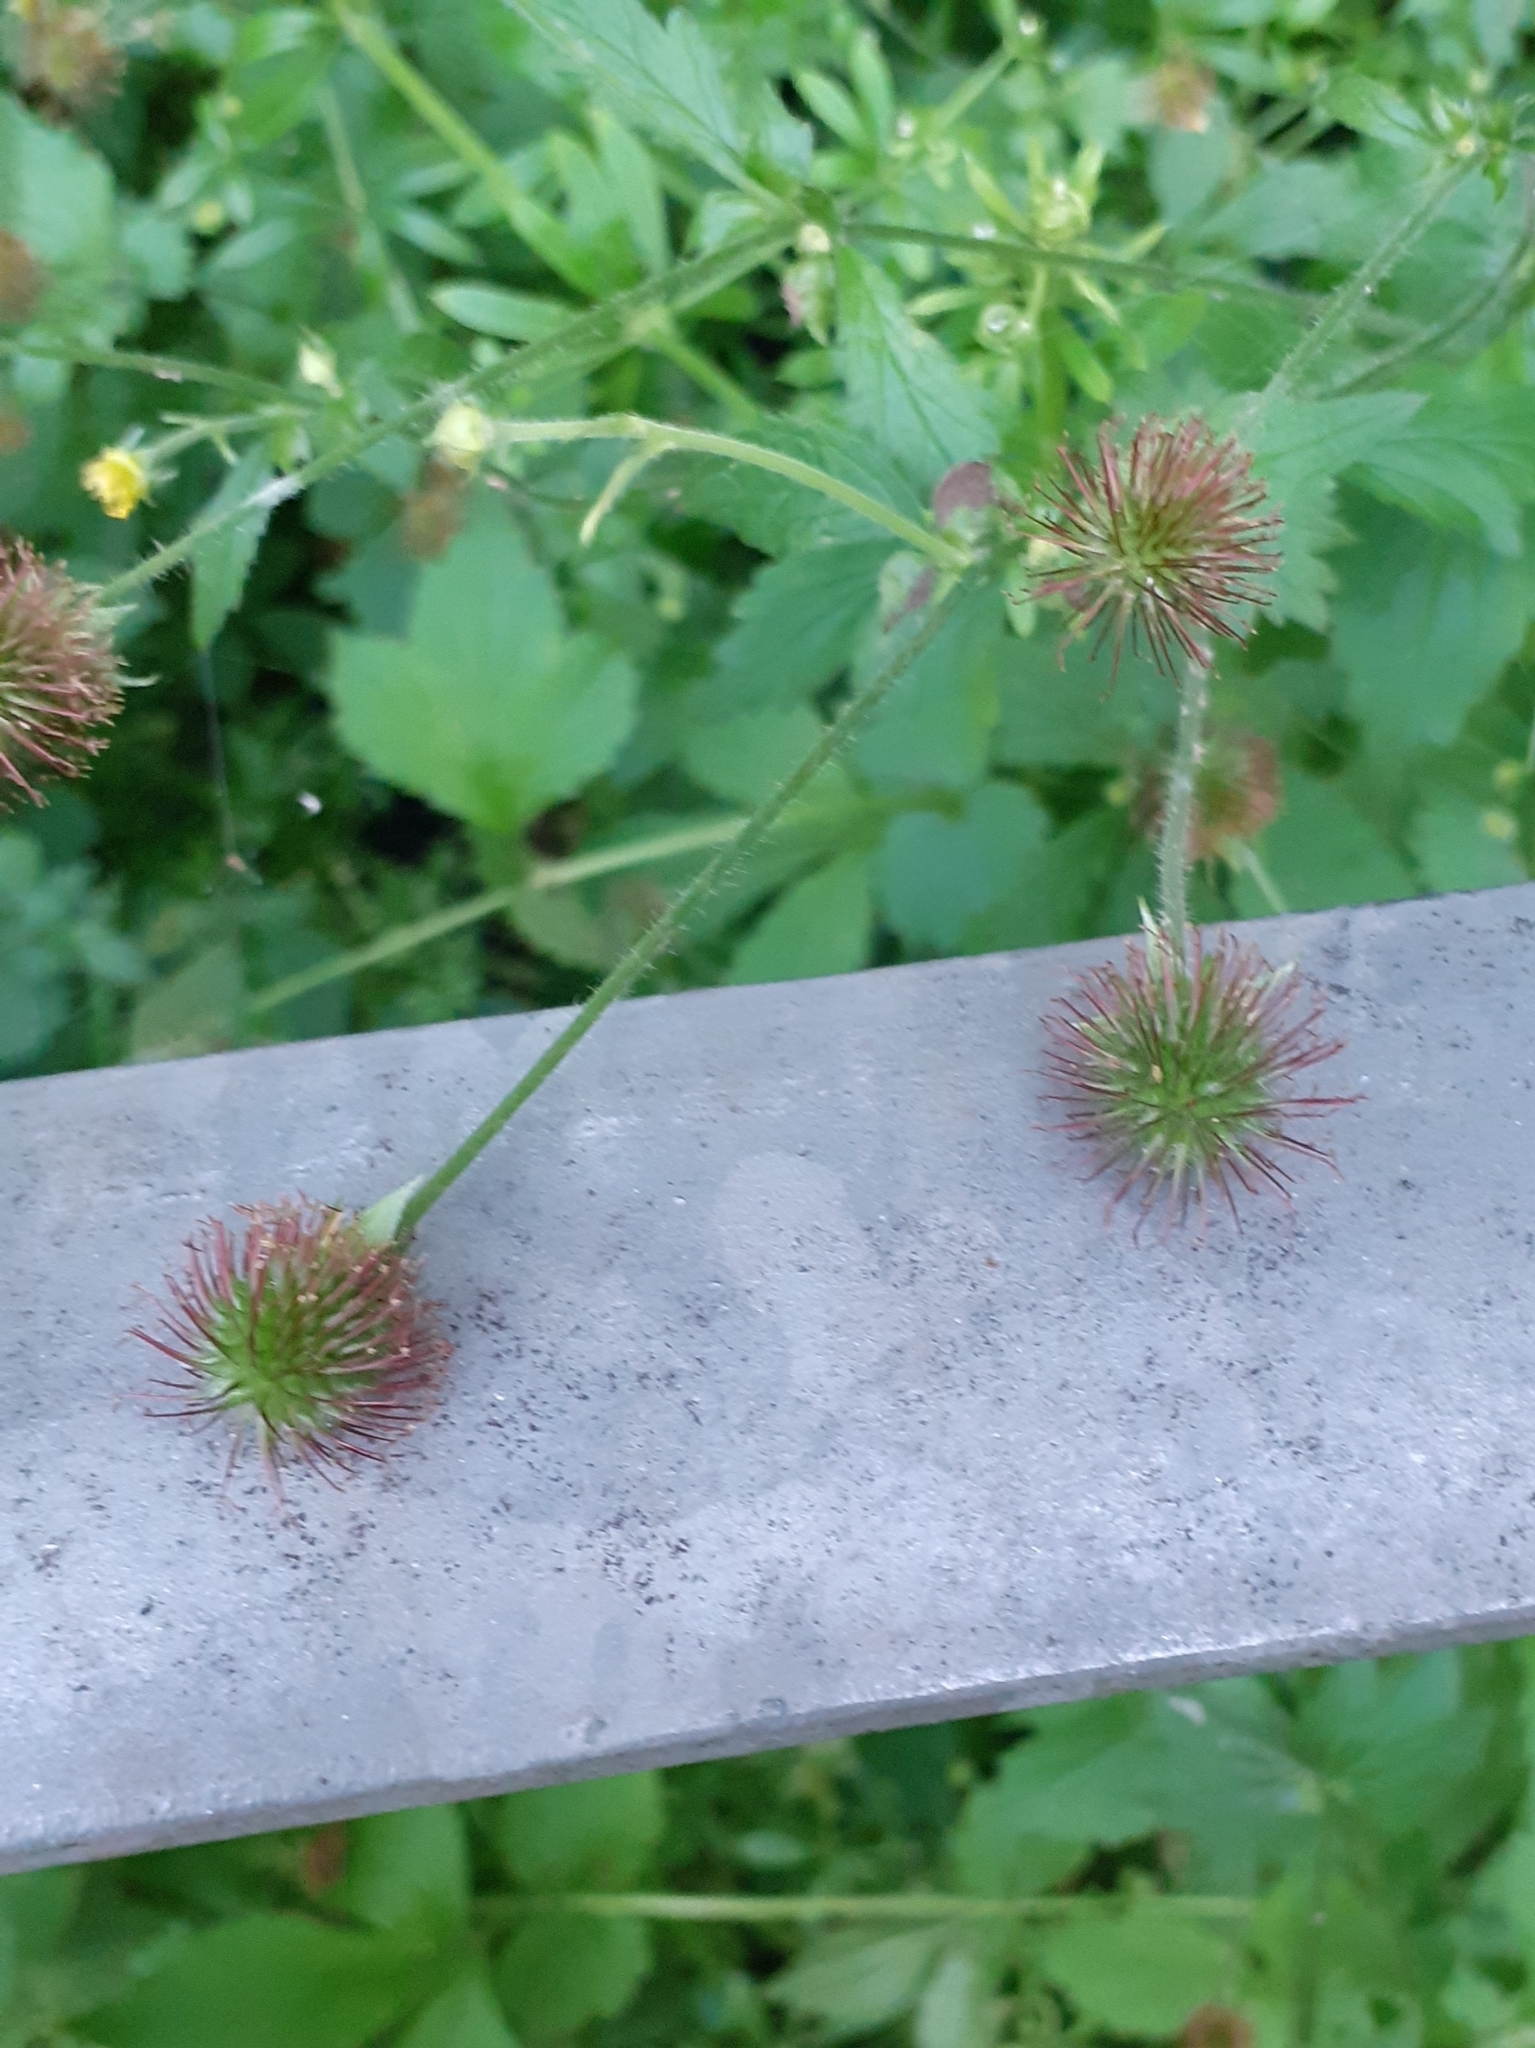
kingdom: Plantae
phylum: Tracheophyta
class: Magnoliopsida
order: Rosales
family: Rosaceae
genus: Geum
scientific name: Geum urbanum
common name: Wood avens
